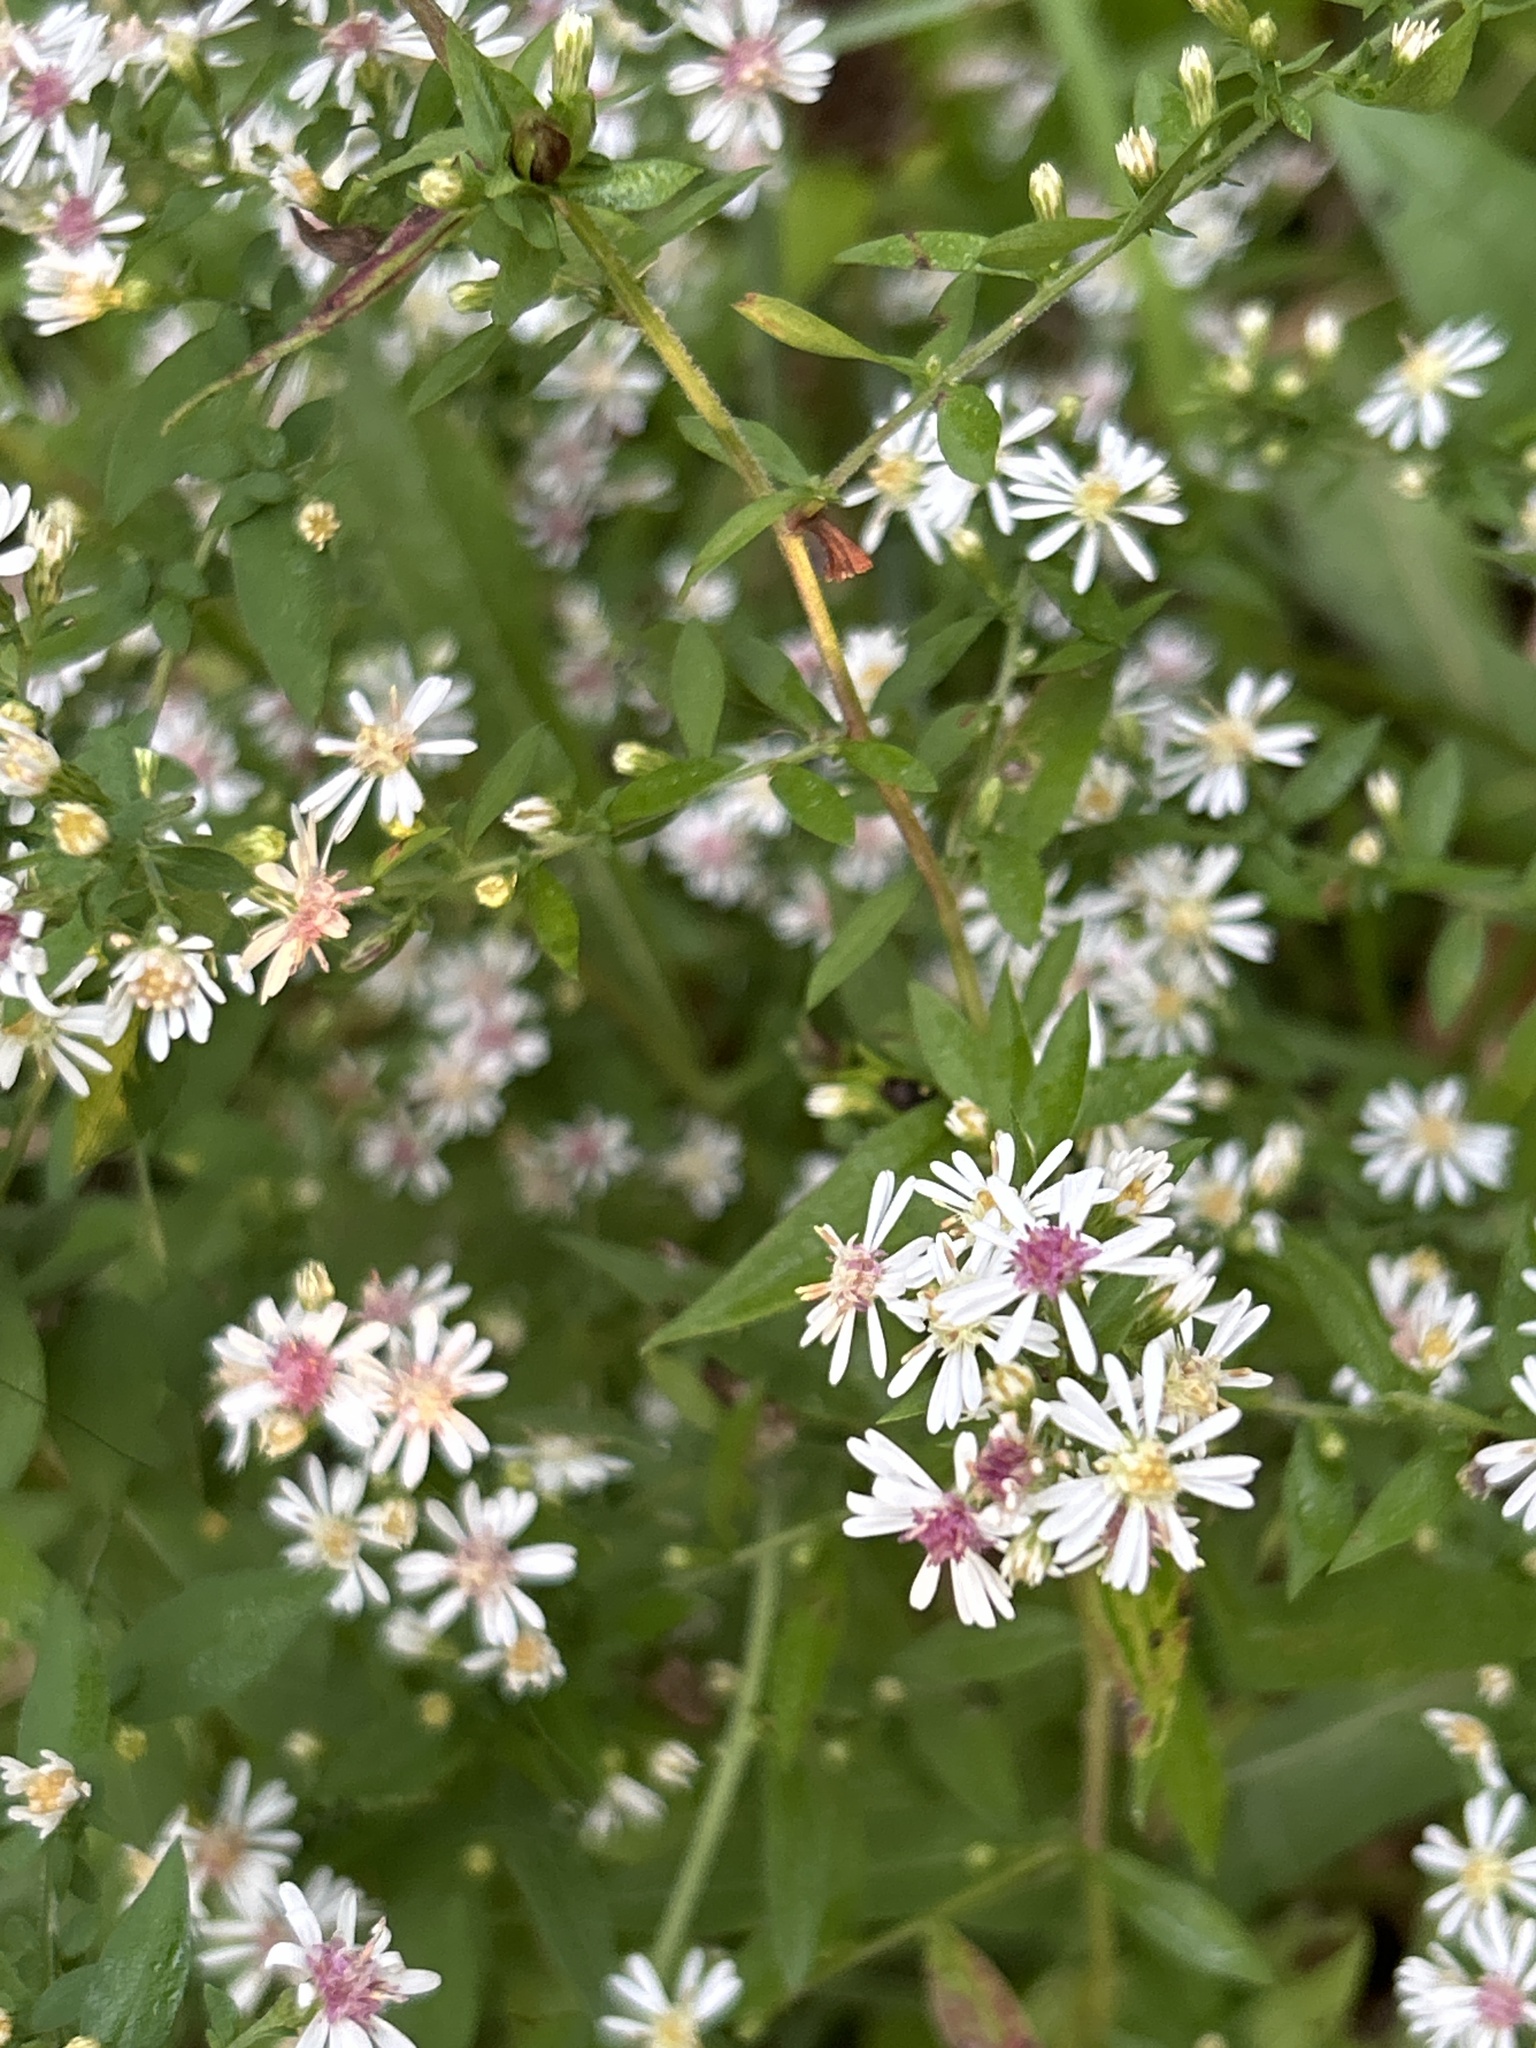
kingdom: Plantae
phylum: Tracheophyta
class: Magnoliopsida
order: Asterales
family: Asteraceae
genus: Symphyotrichum
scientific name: Symphyotrichum lateriflorum
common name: Calico aster
